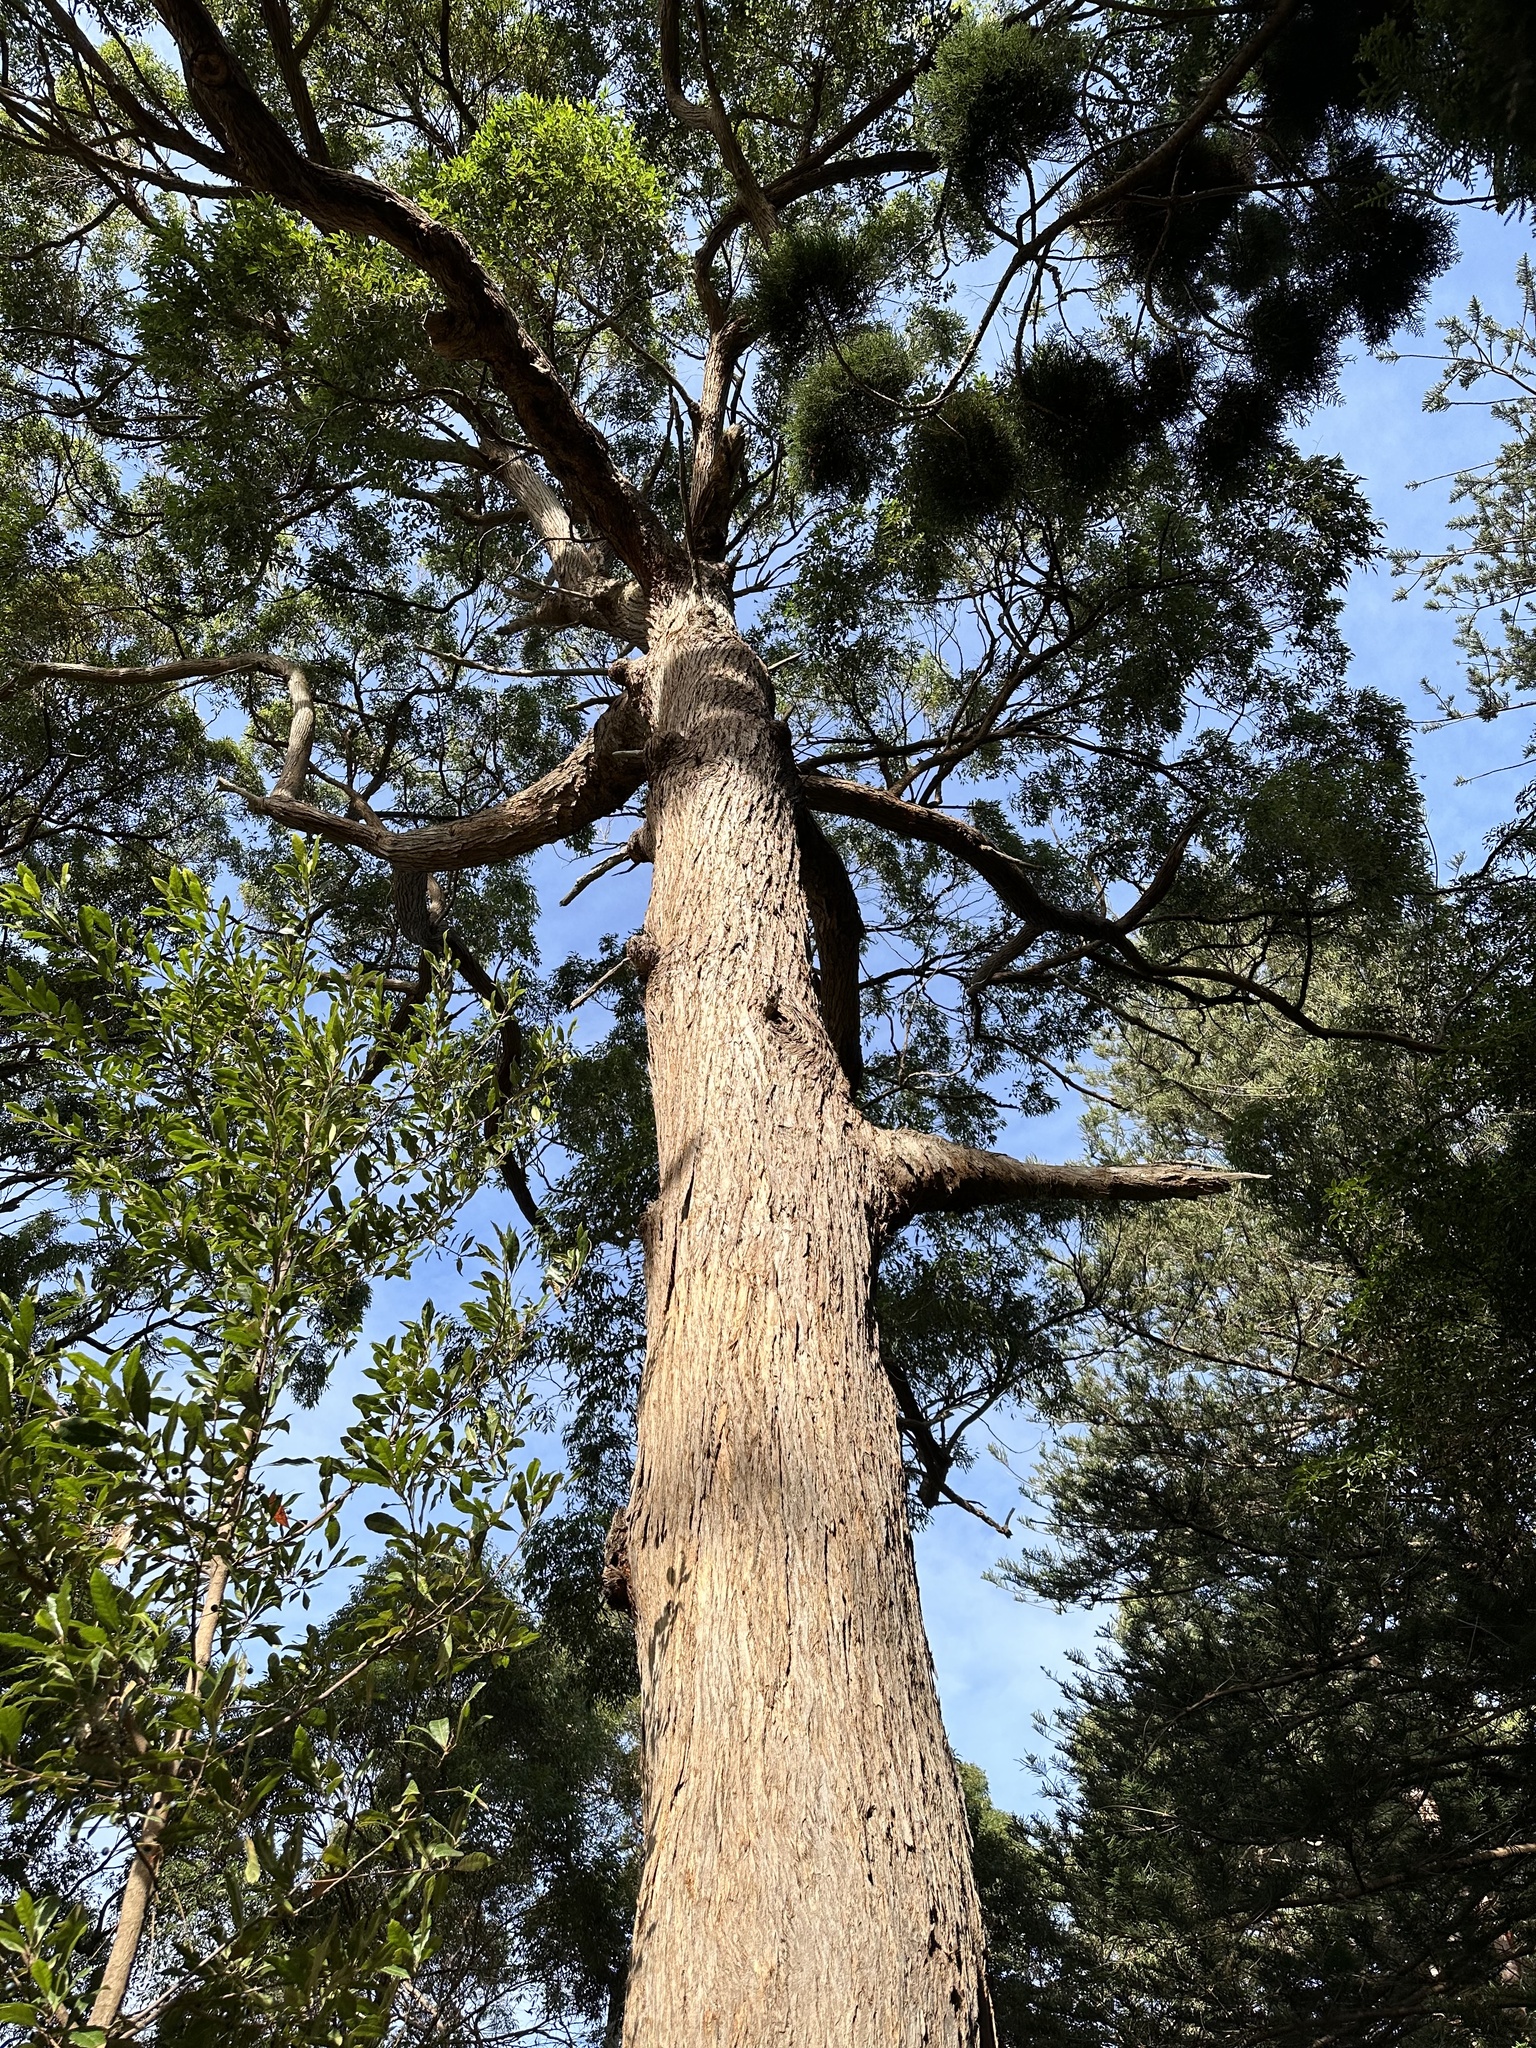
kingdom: Plantae
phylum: Tracheophyta
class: Magnoliopsida
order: Myrtales
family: Myrtaceae
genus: Eucalyptus
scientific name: Eucalyptus microcorys
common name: Tallowwood
